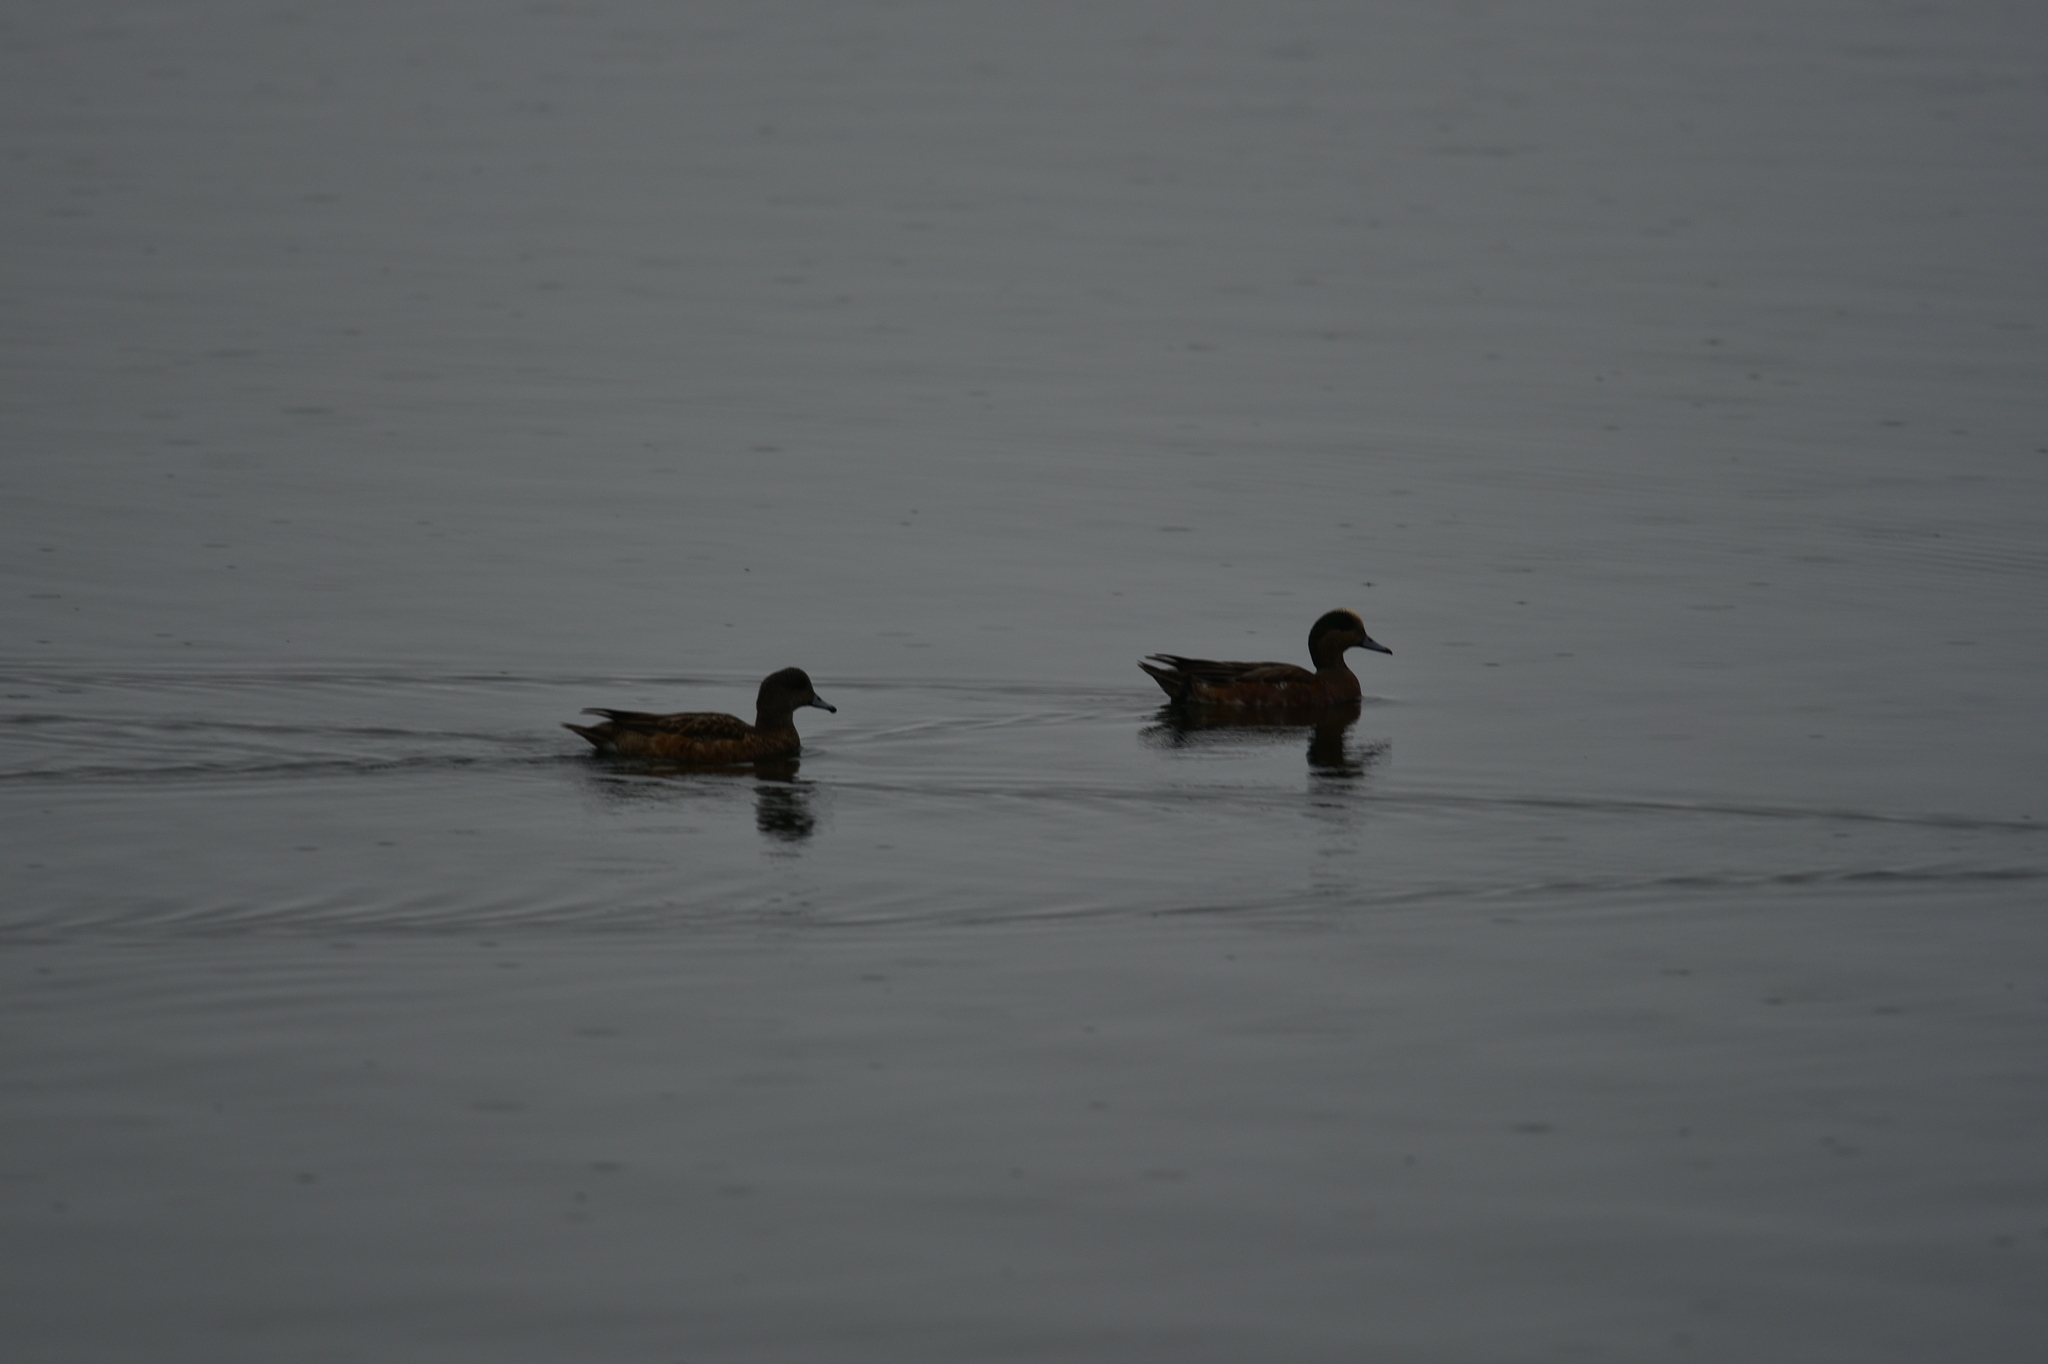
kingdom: Animalia
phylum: Chordata
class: Aves
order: Anseriformes
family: Anatidae
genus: Mareca
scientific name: Mareca americana
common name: American wigeon
